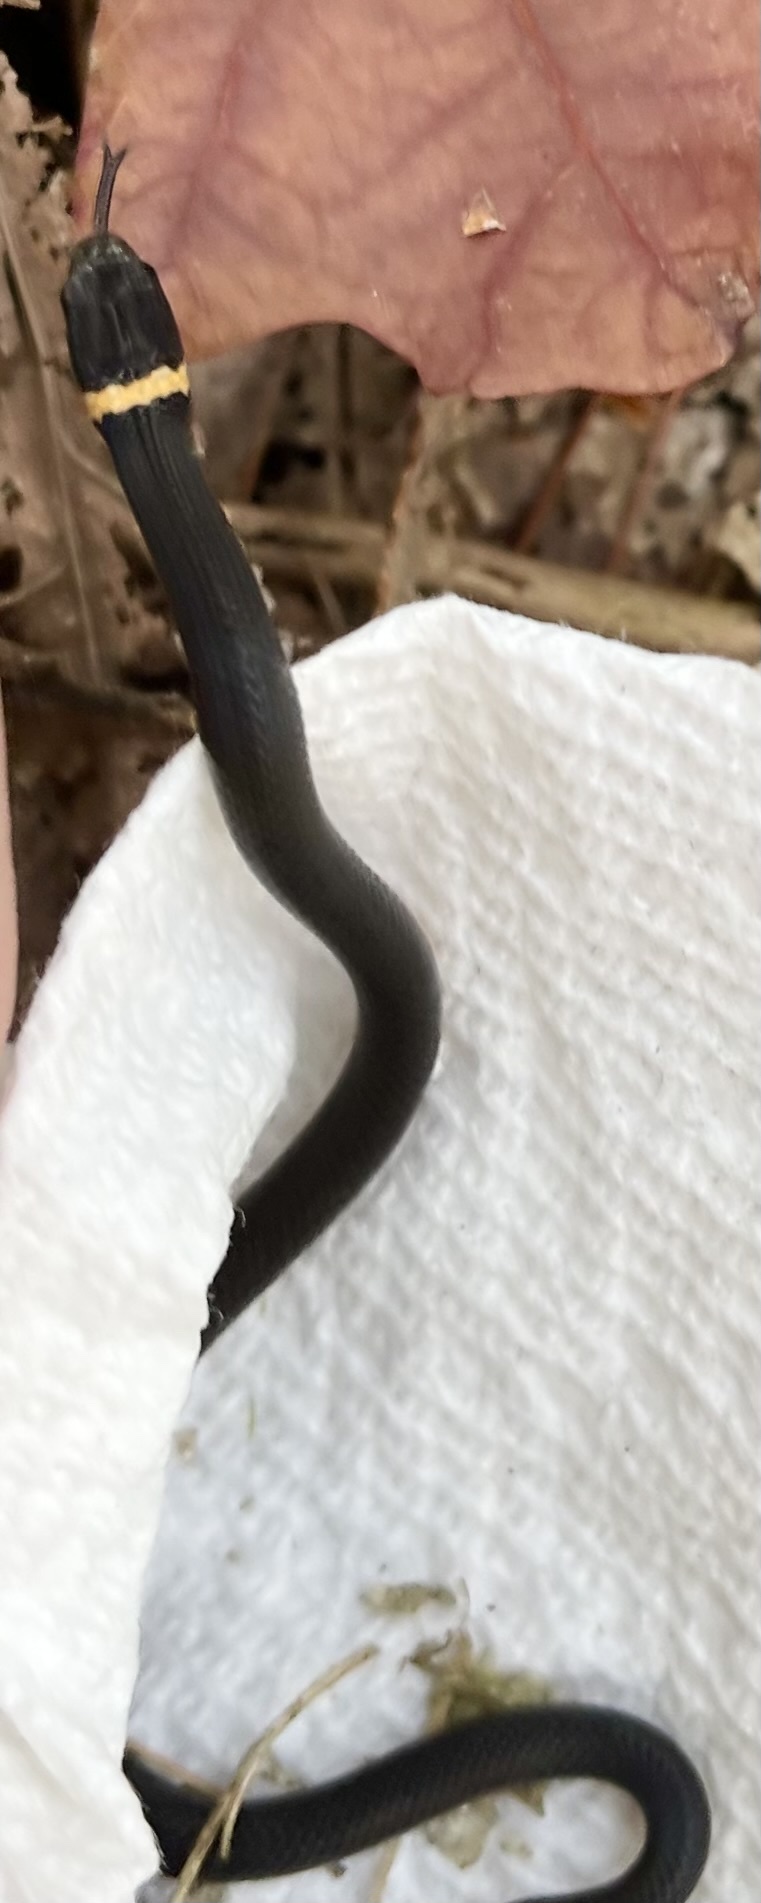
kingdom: Animalia
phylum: Chordata
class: Squamata
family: Colubridae
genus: Diadophis
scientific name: Diadophis punctatus
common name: Ringneck snake
